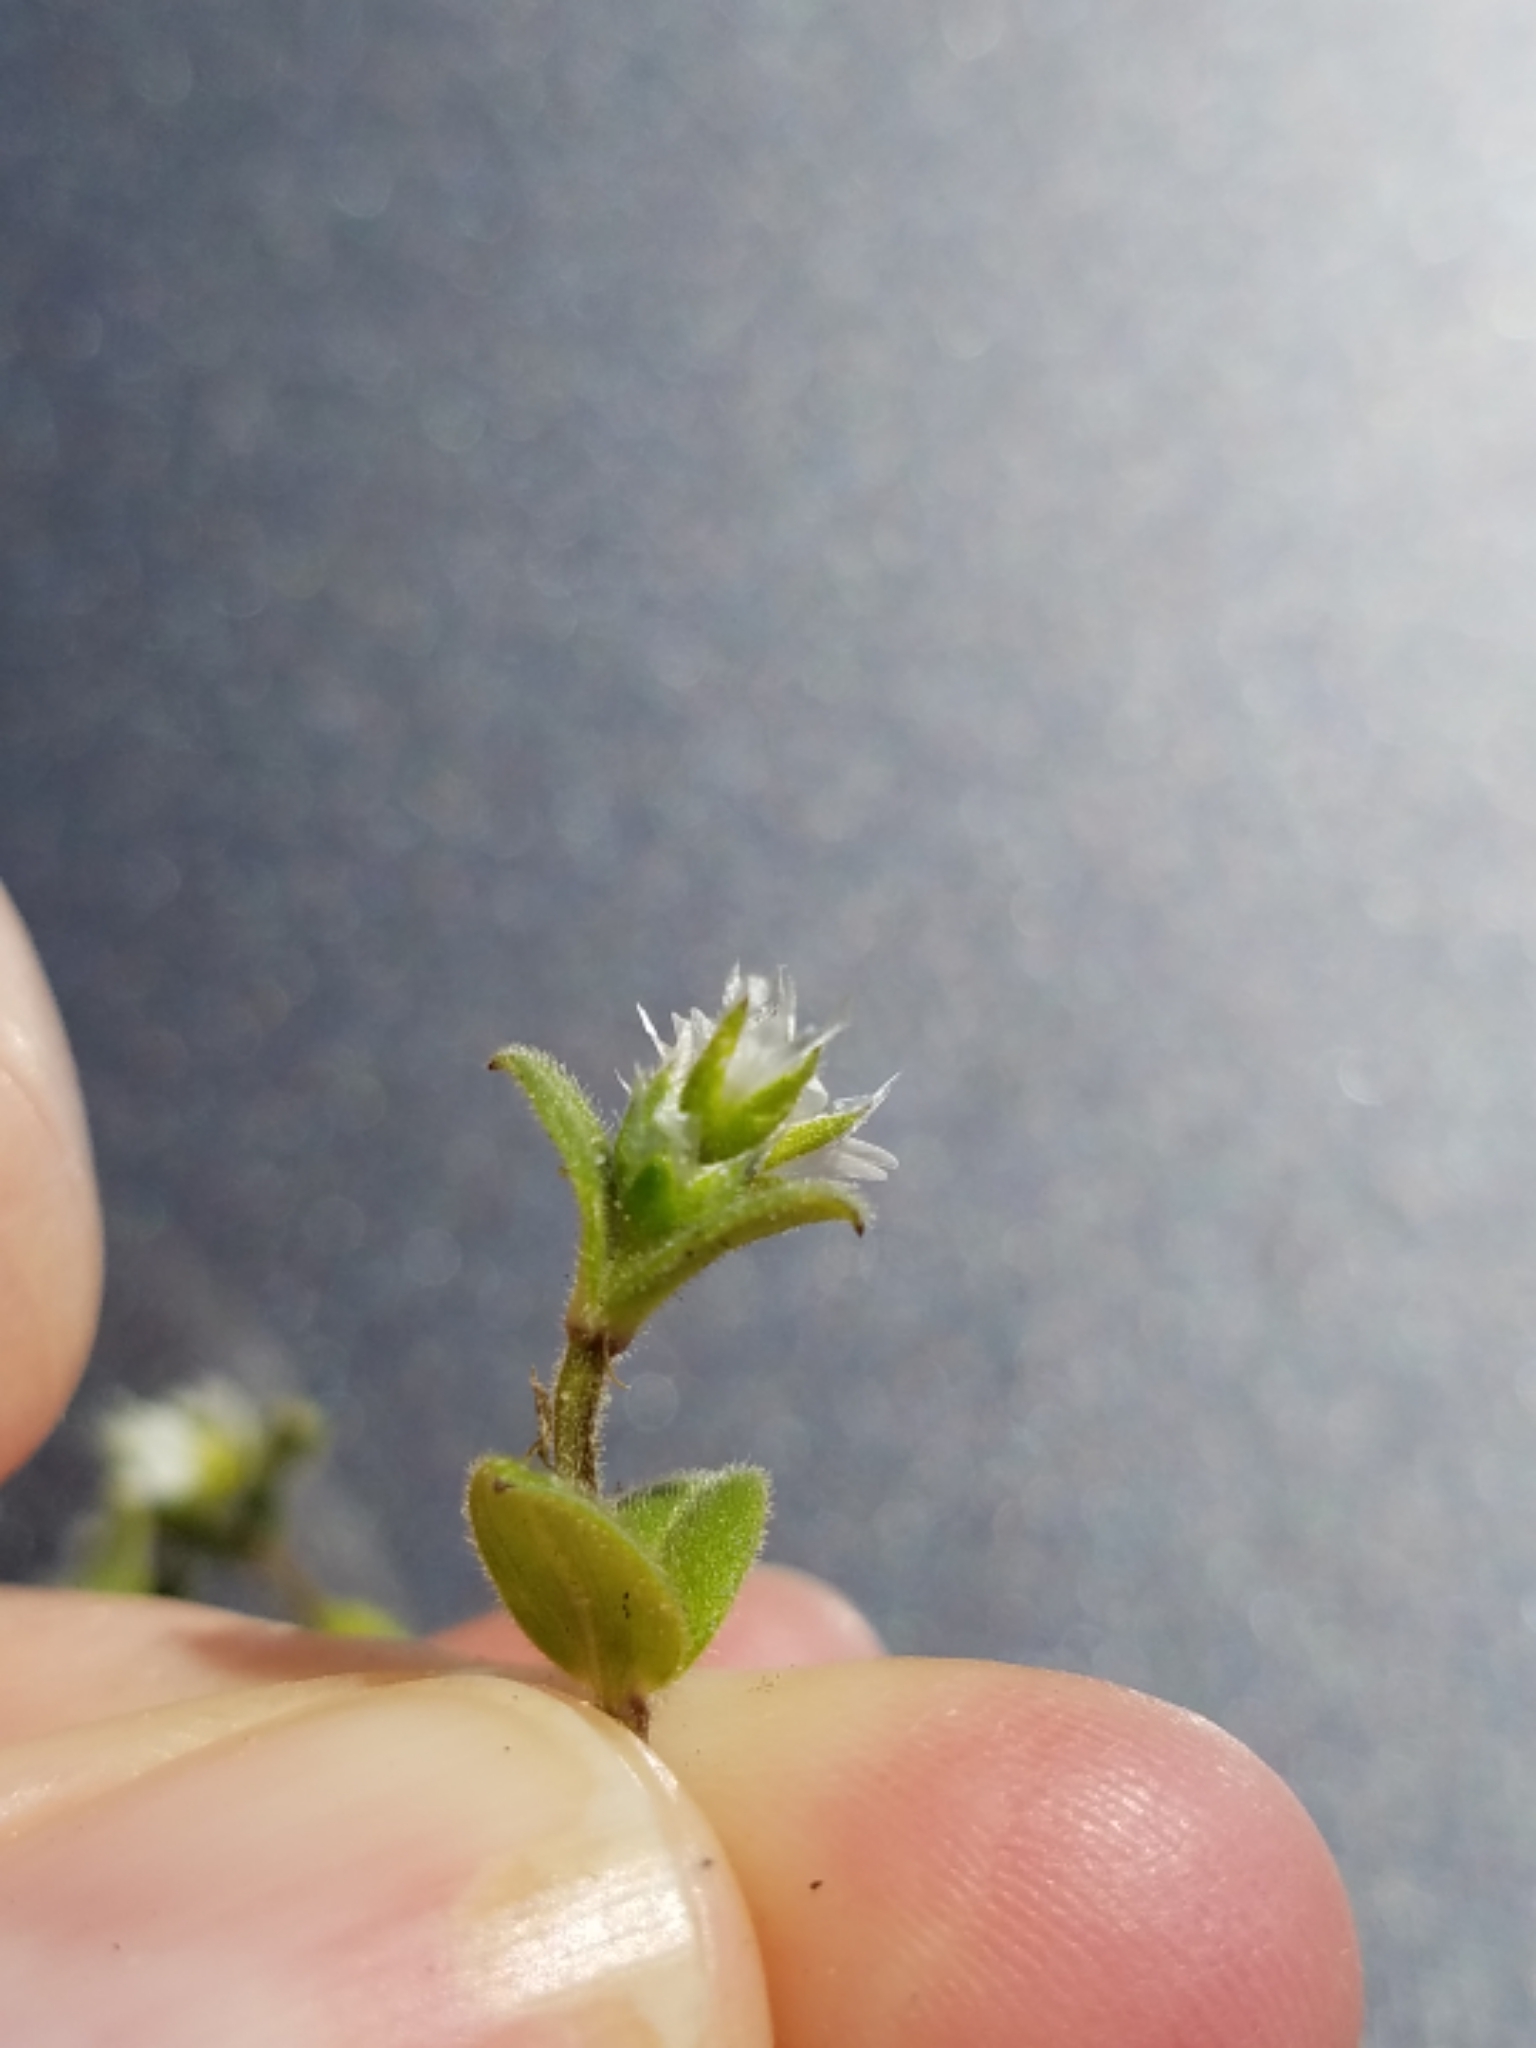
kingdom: Plantae
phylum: Tracheophyta
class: Magnoliopsida
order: Caryophyllales
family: Caryophyllaceae
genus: Cerastium
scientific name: Cerastium fontanum
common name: Common mouse-ear
